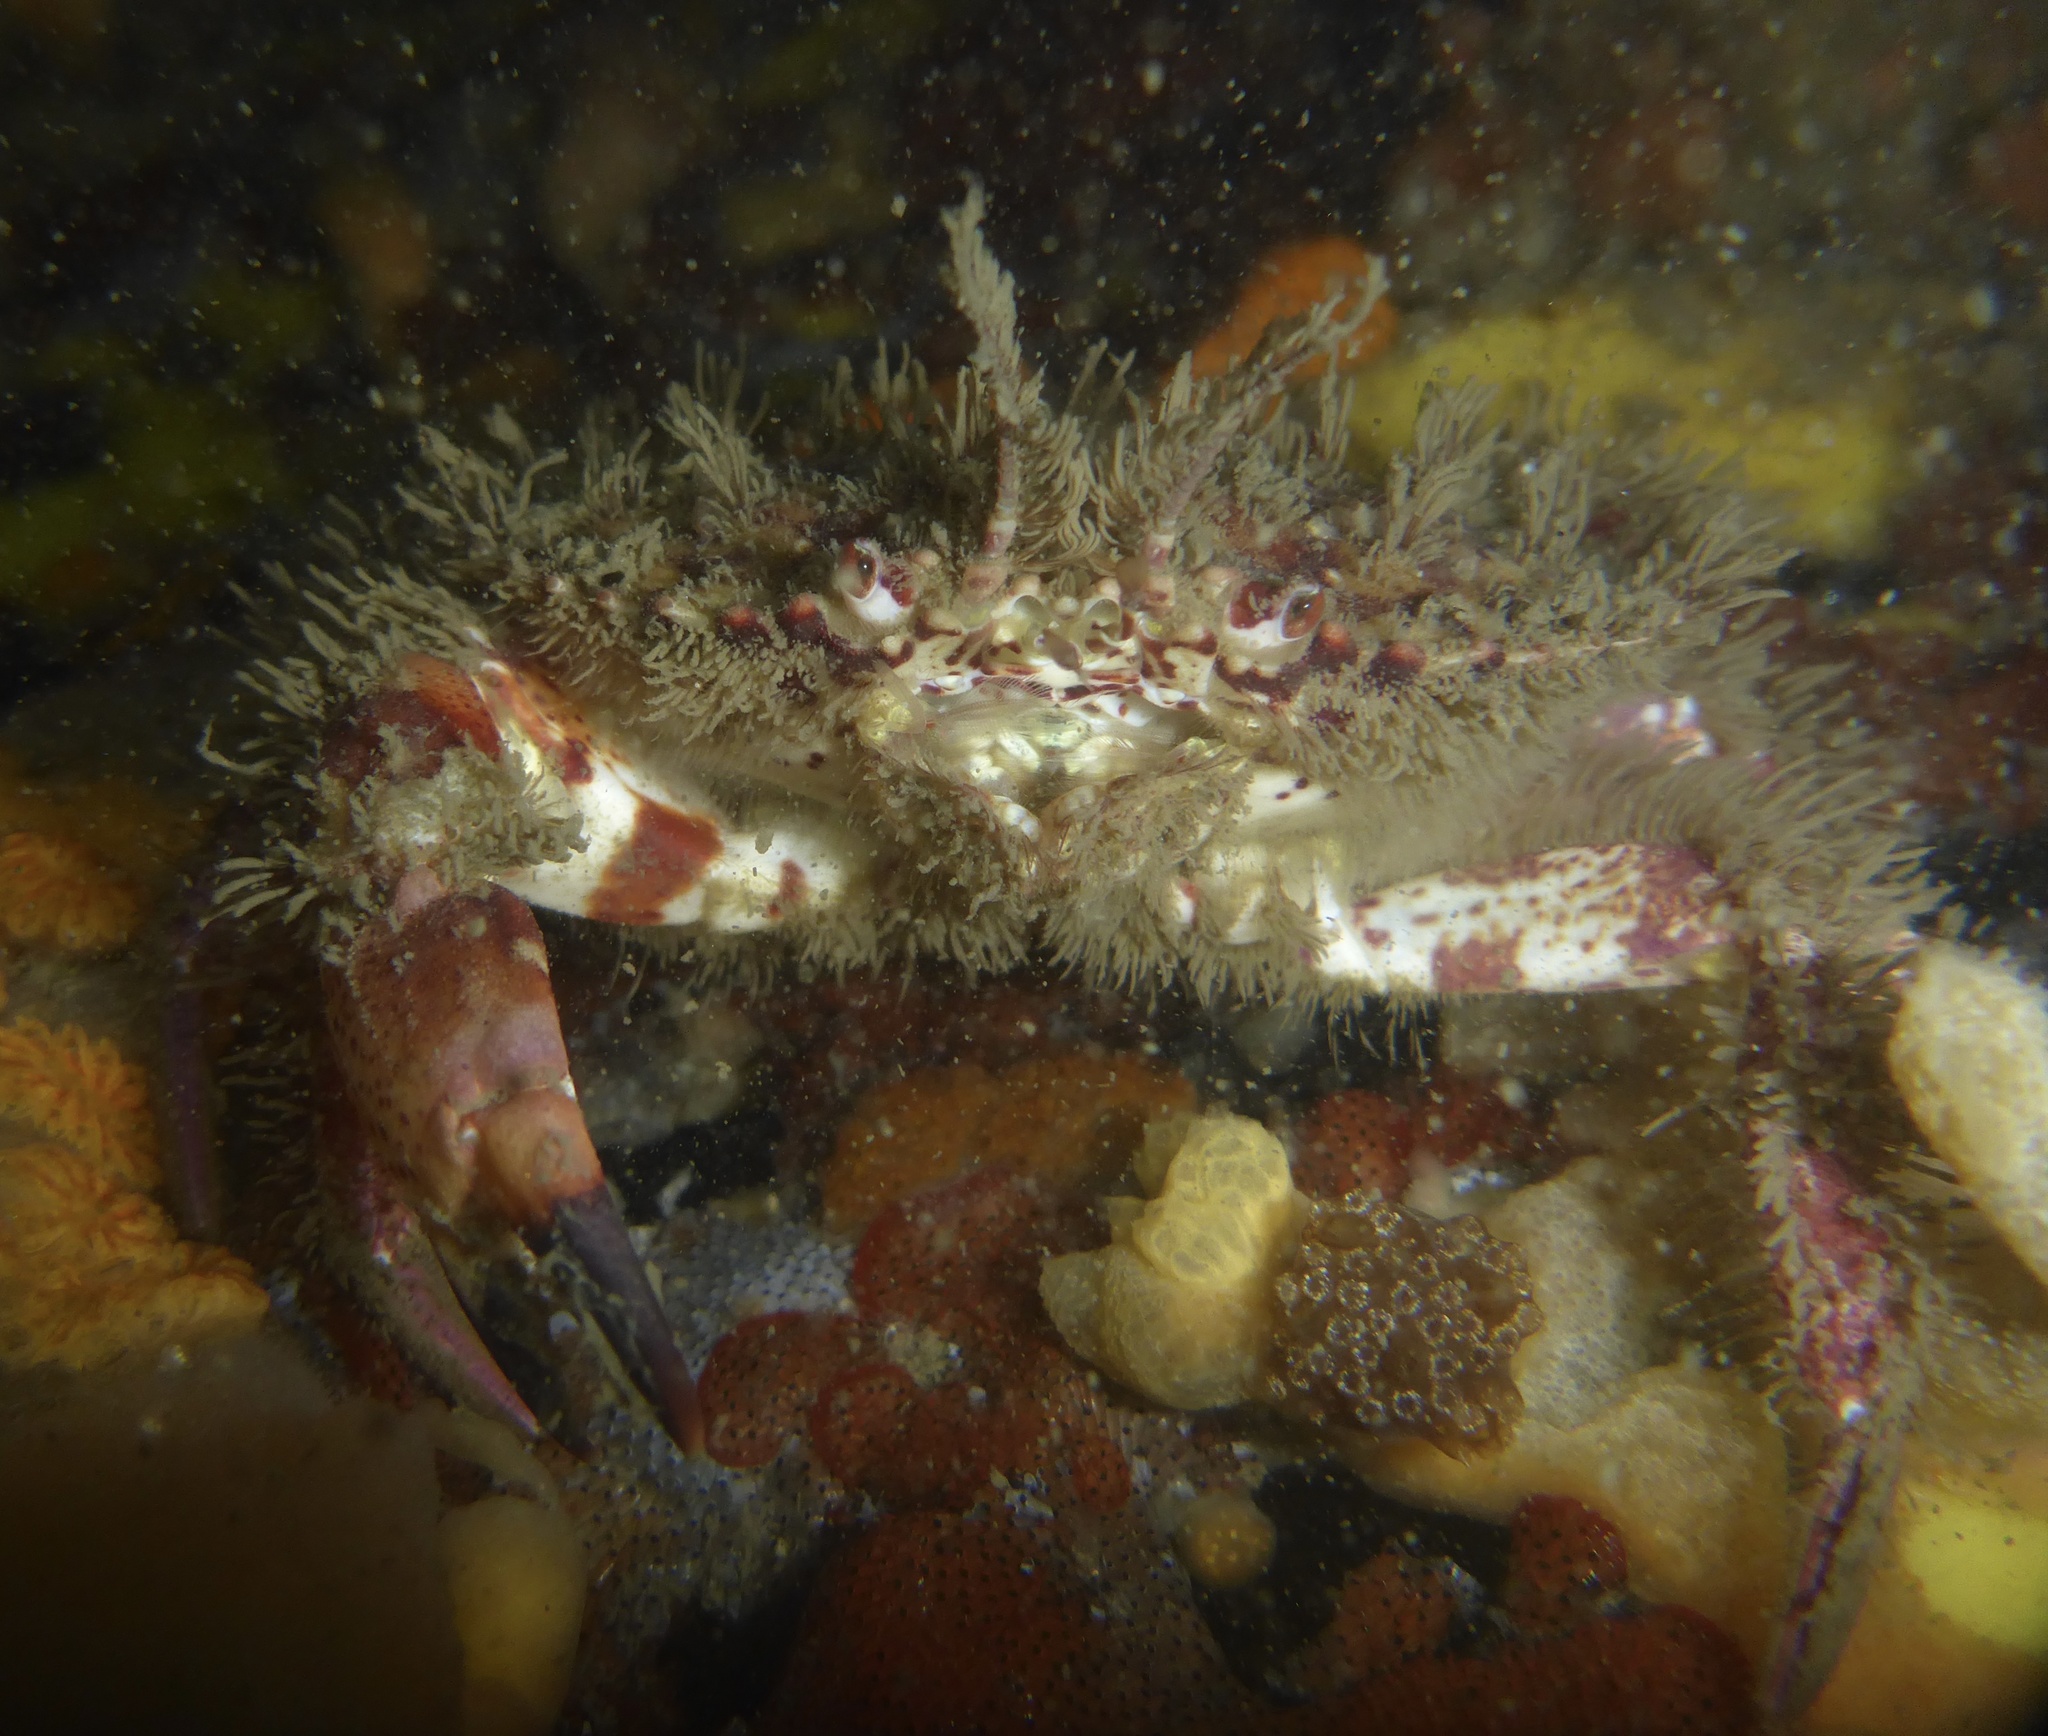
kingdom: Animalia
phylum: Arthropoda
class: Malacostraca
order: Decapoda
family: Cancridae
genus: Romaleon
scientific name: Romaleon antennarium
